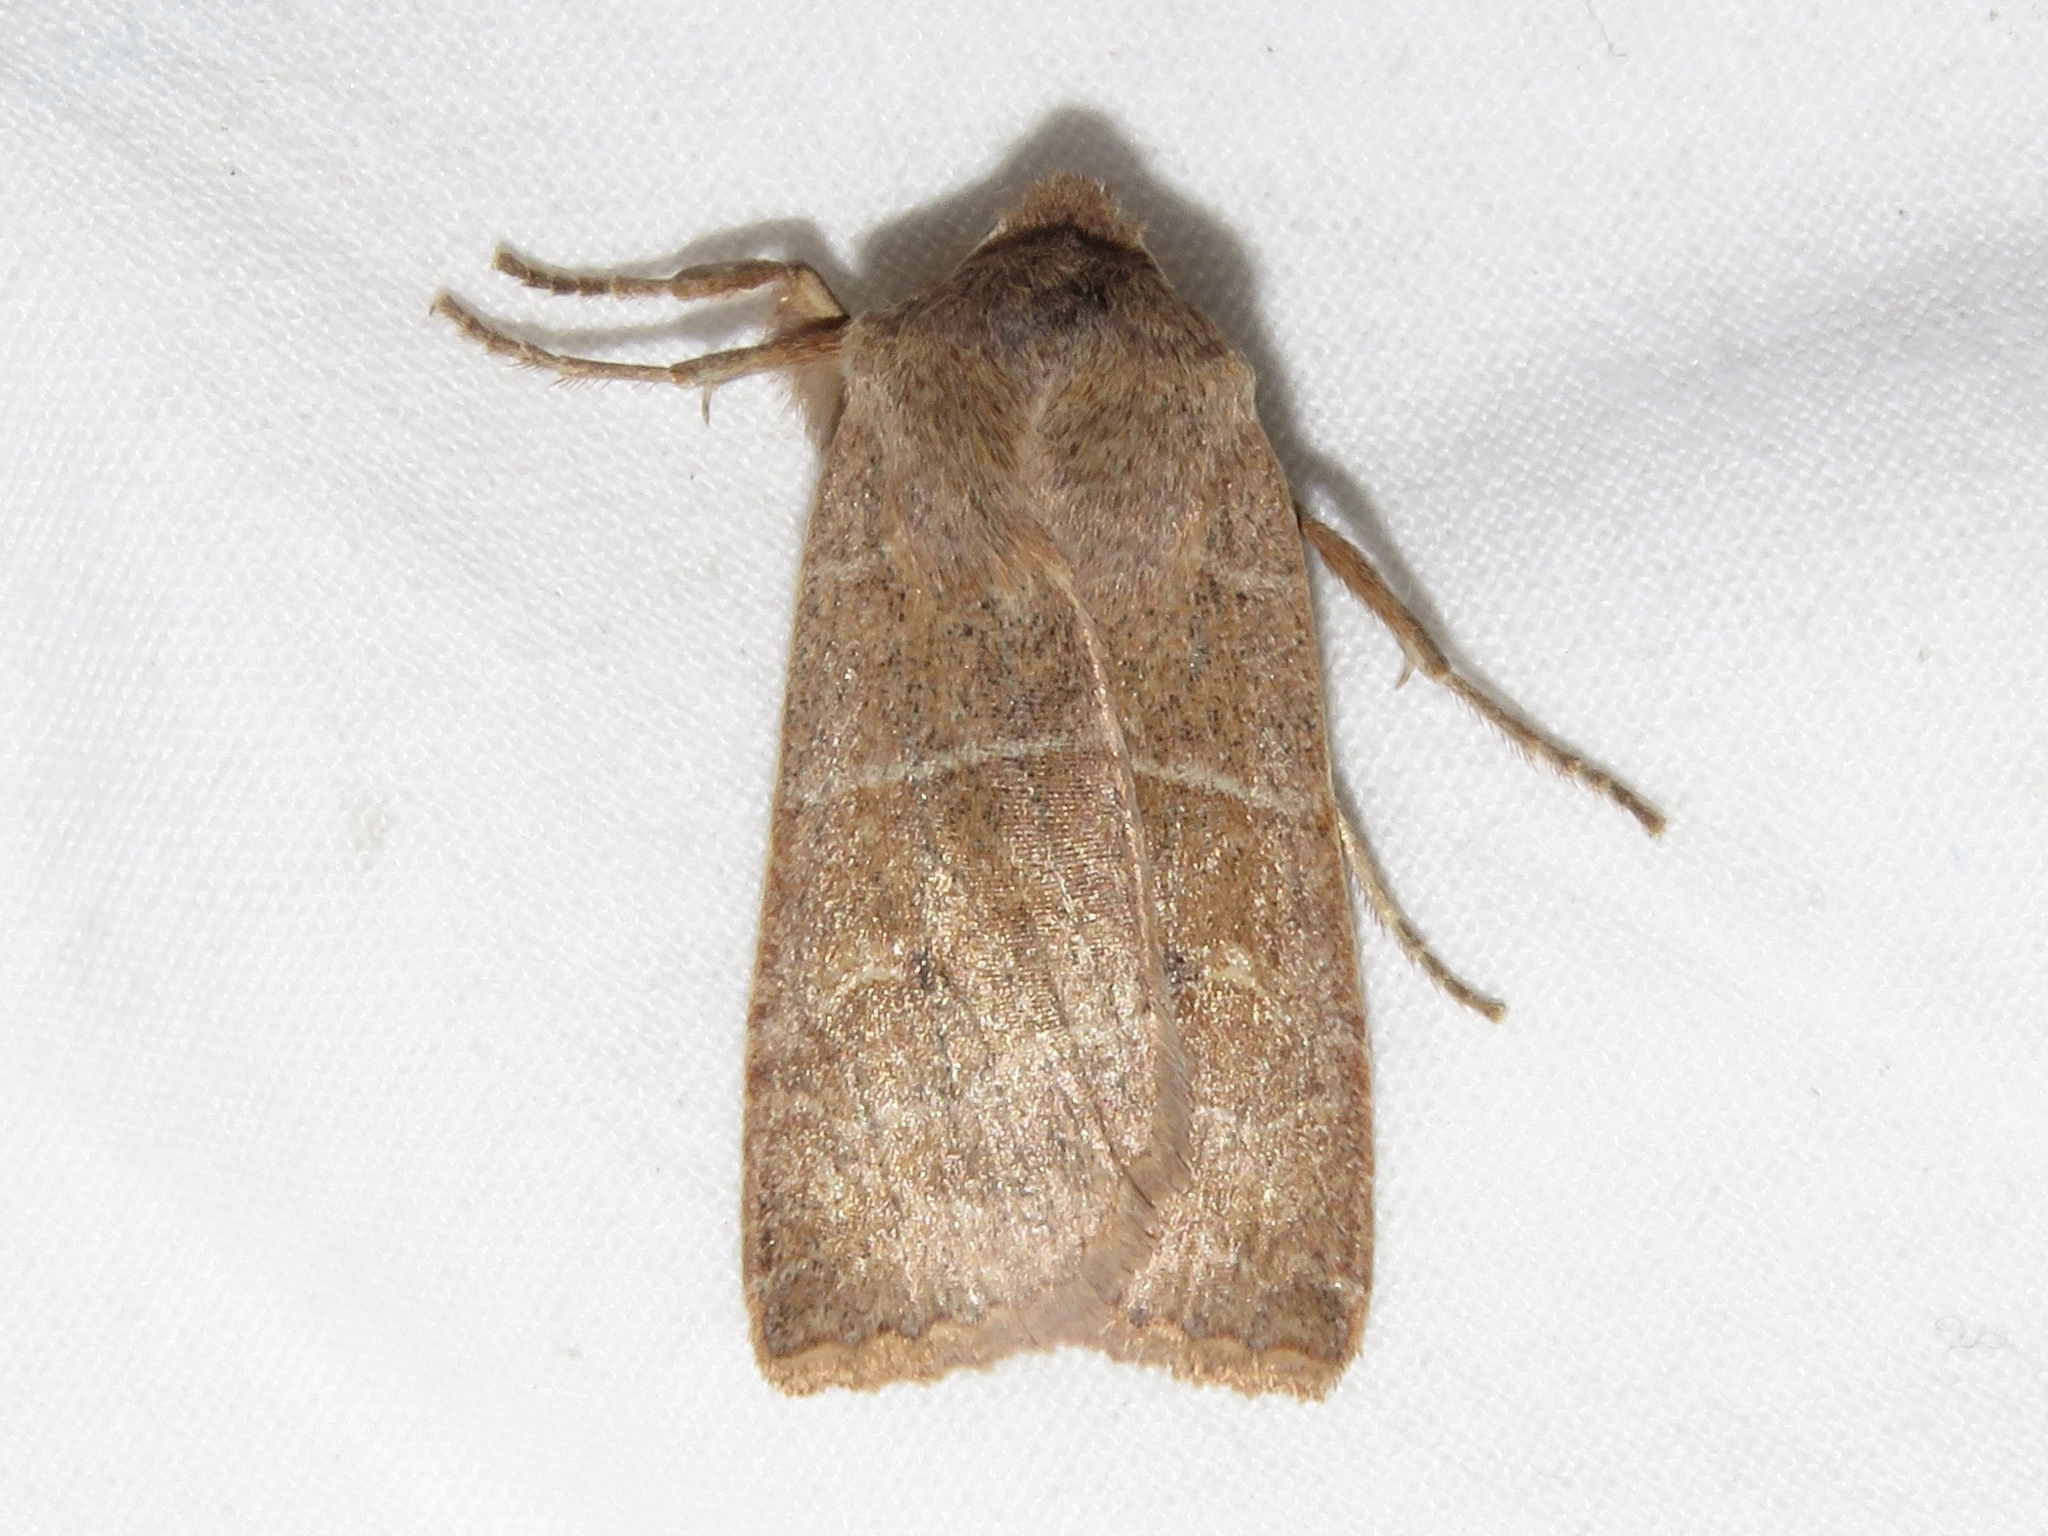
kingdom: Animalia
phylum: Arthropoda
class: Insecta
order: Lepidoptera
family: Noctuidae
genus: Eupsilia
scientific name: Eupsilia morrisoni
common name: Morrison's sallow
